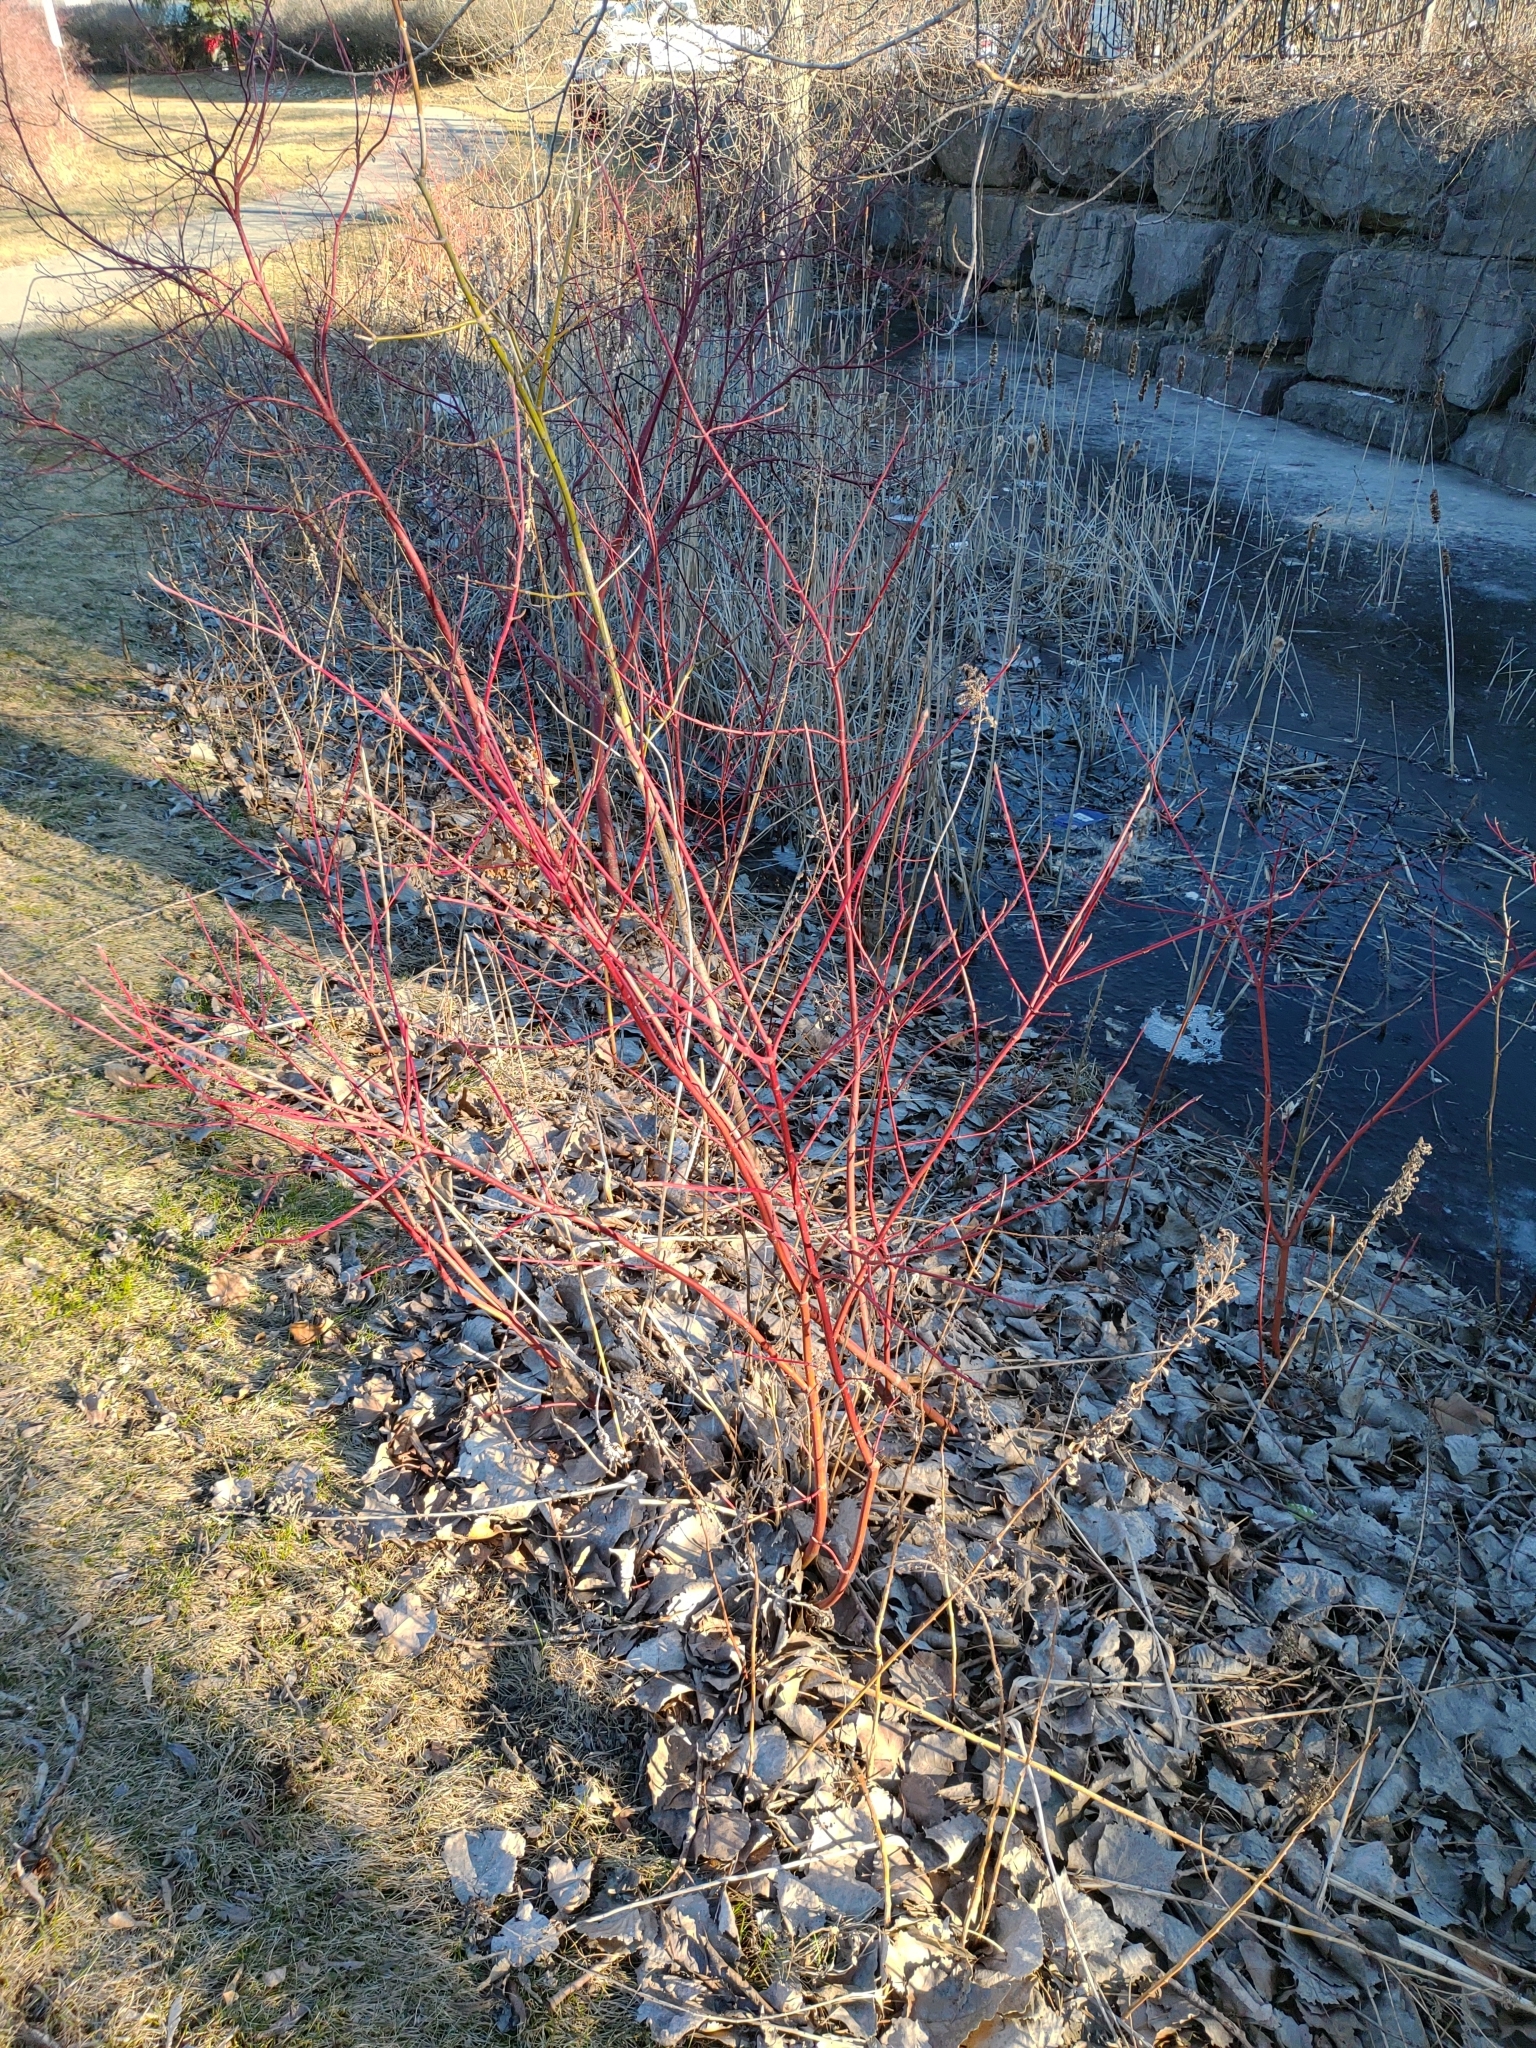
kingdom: Plantae
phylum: Tracheophyta
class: Magnoliopsida
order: Cornales
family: Cornaceae
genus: Cornus
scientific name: Cornus sericea
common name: Red-osier dogwood
